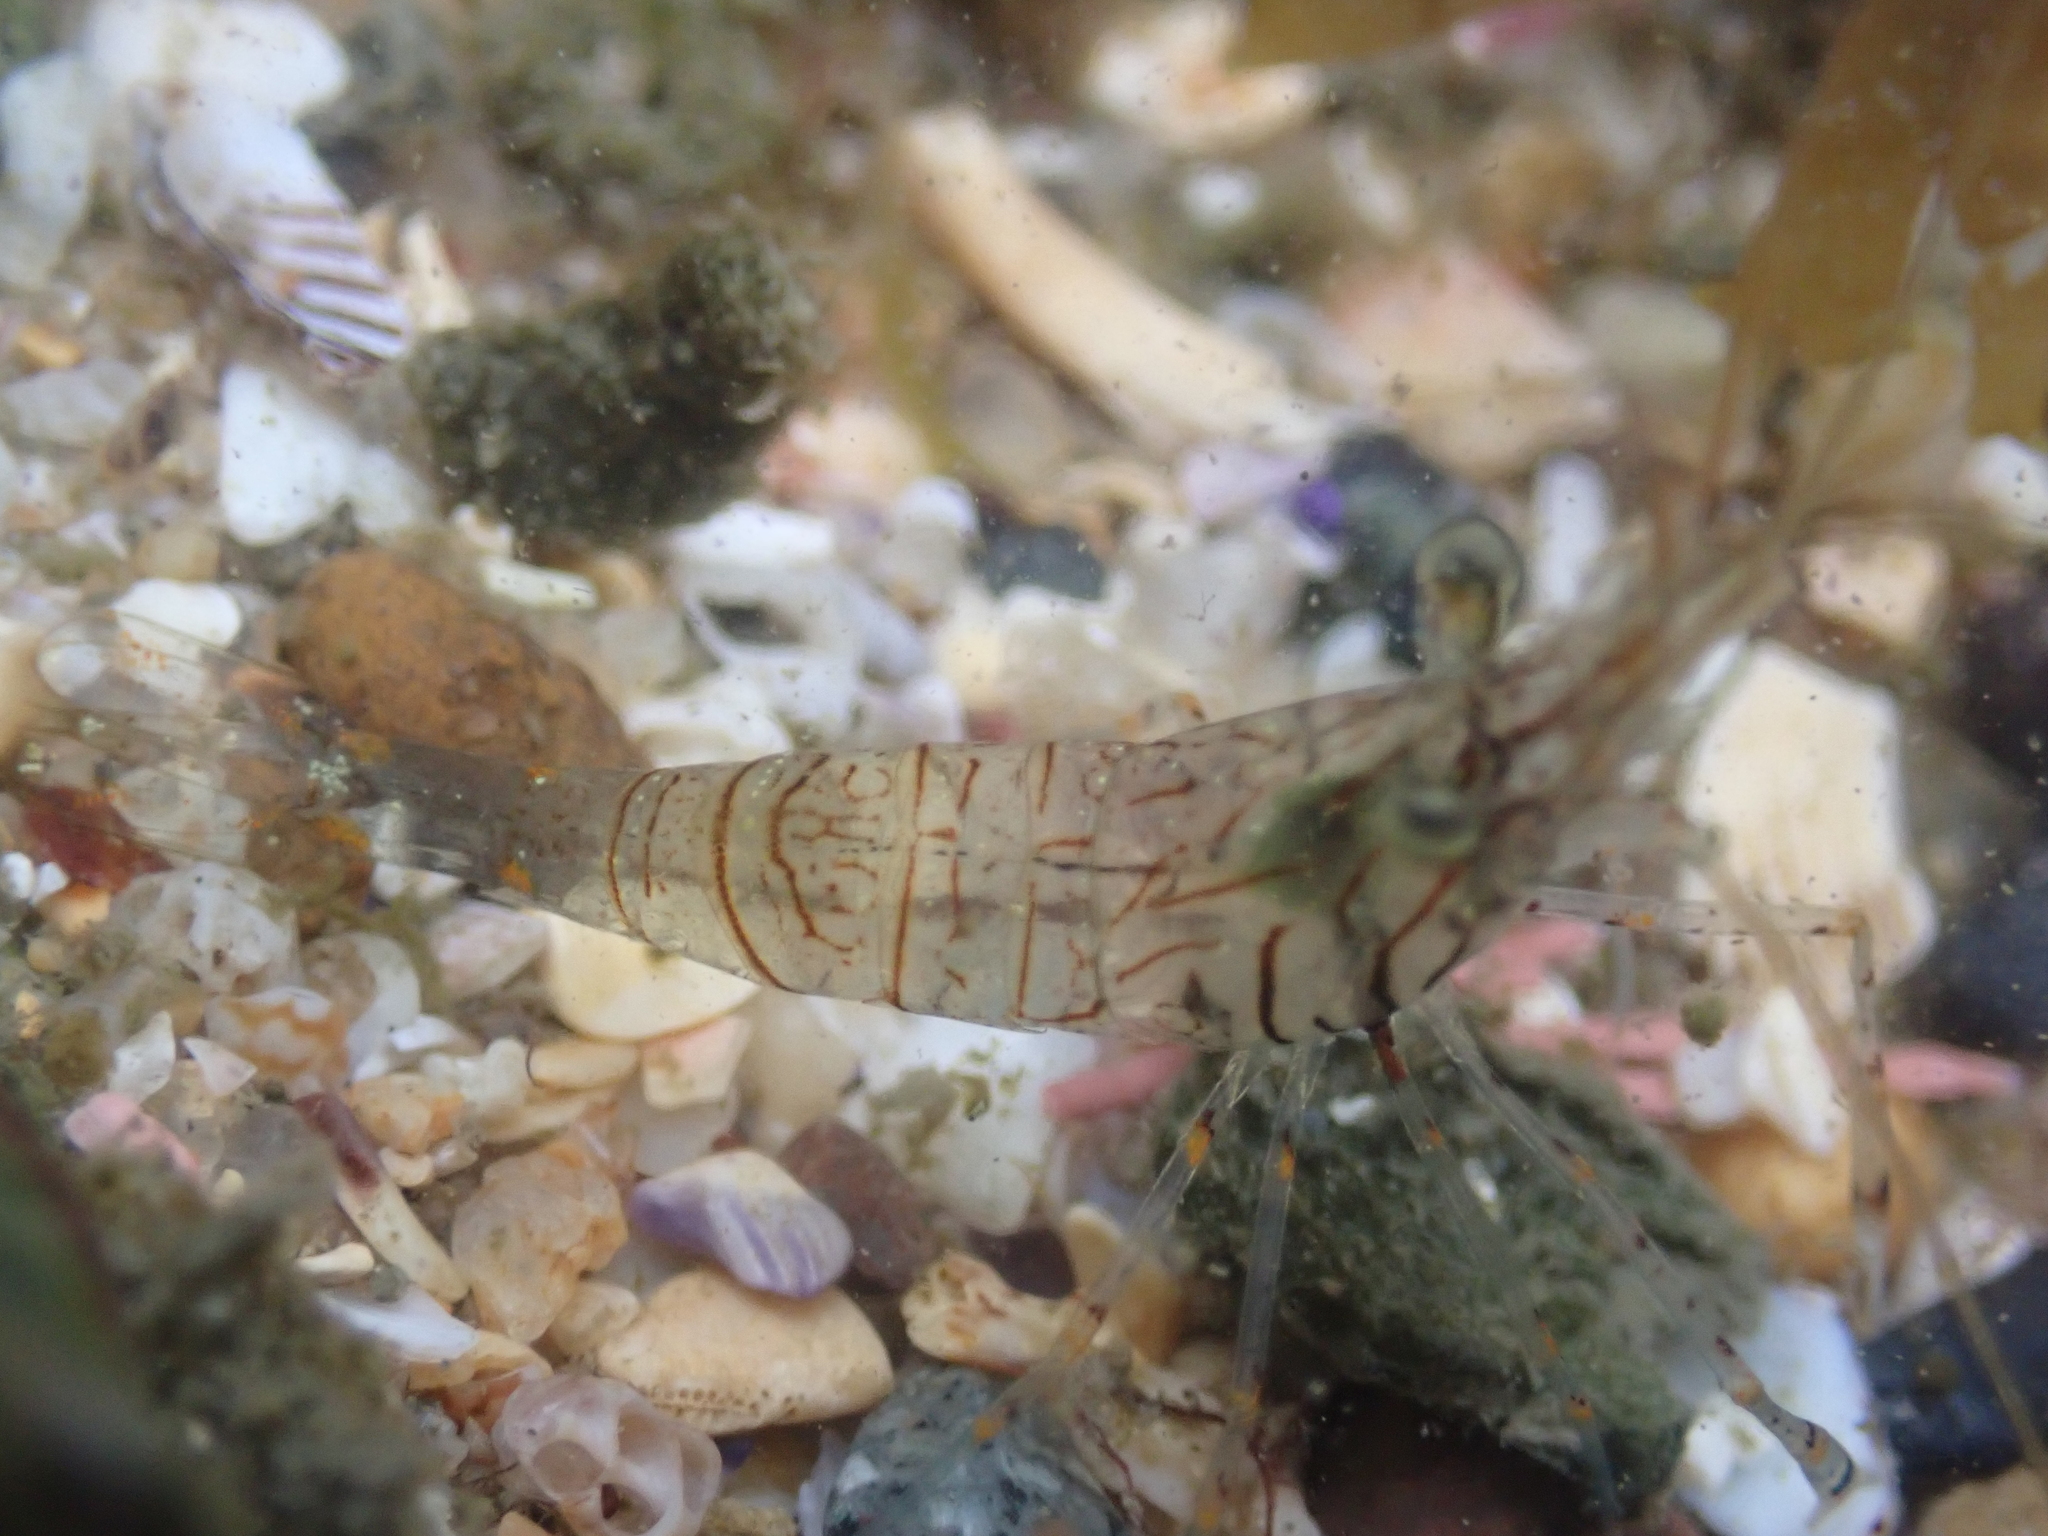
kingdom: Animalia
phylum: Arthropoda
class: Malacostraca
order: Decapoda
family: Palaemonidae
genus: Palaemon
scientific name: Palaemon dolospinus
